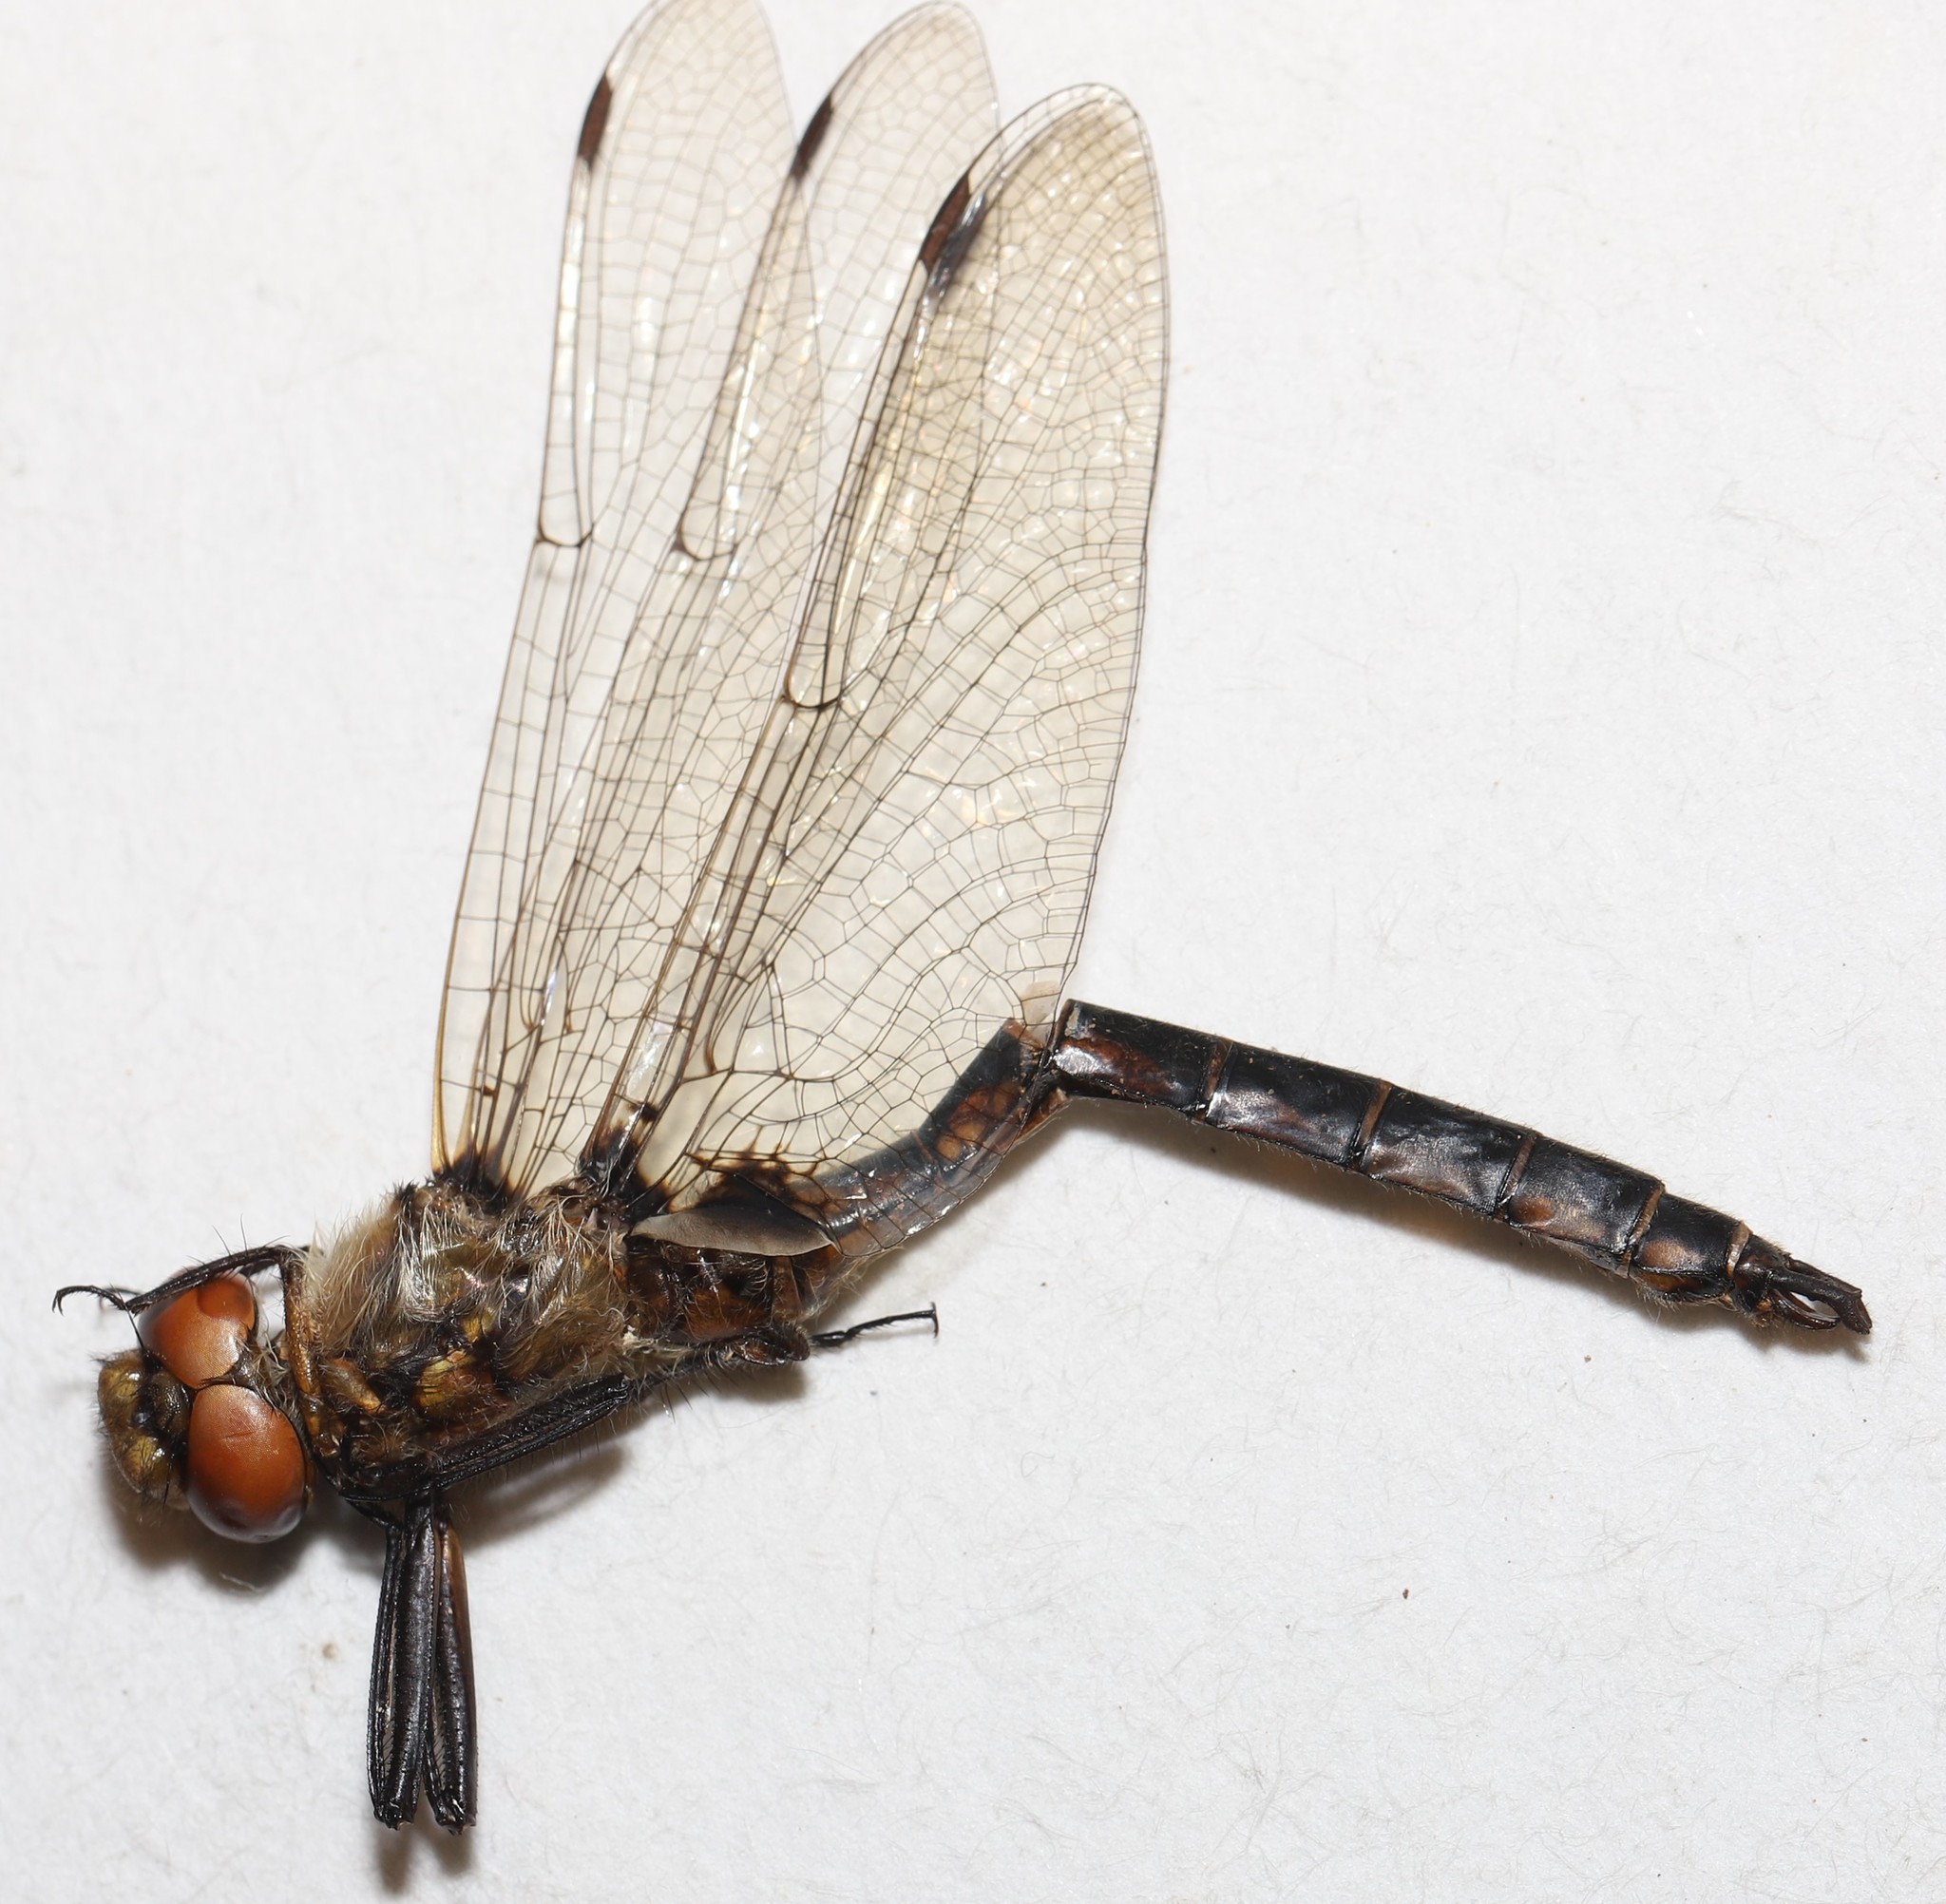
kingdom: Animalia
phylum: Arthropoda
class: Insecta
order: Odonata
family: Corduliidae
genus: Epitheca
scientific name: Epitheca canis
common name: Beaverpond baskettail
